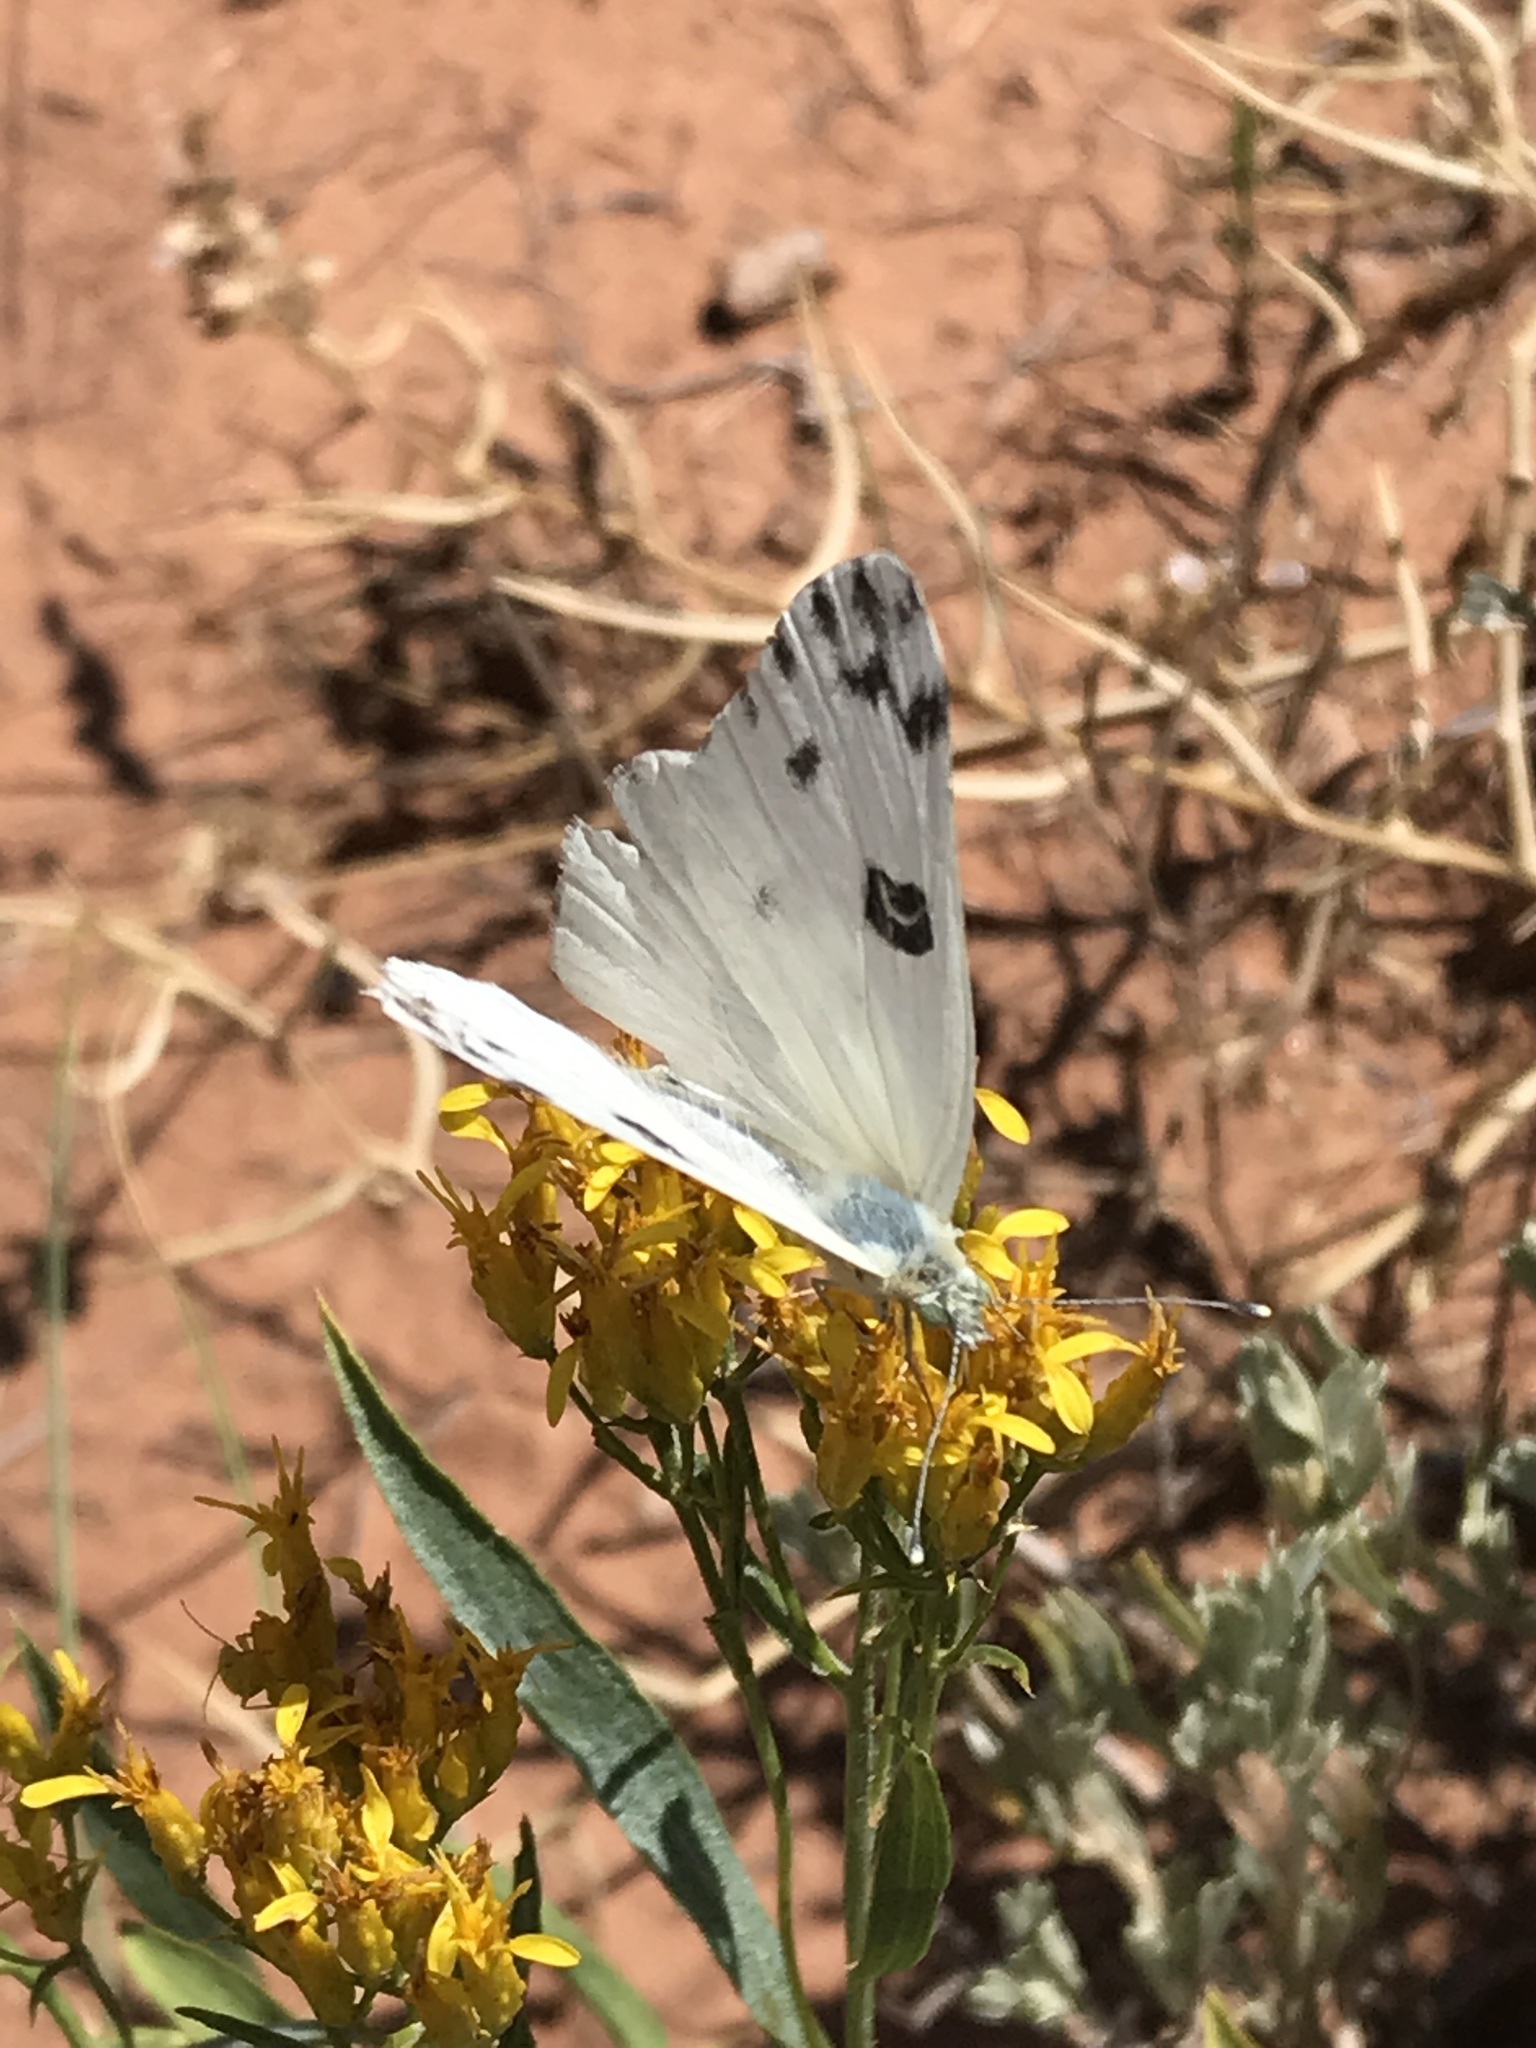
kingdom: Animalia
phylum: Arthropoda
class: Insecta
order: Lepidoptera
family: Pieridae
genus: Pontia
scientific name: Pontia beckerii
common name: Becker's white
